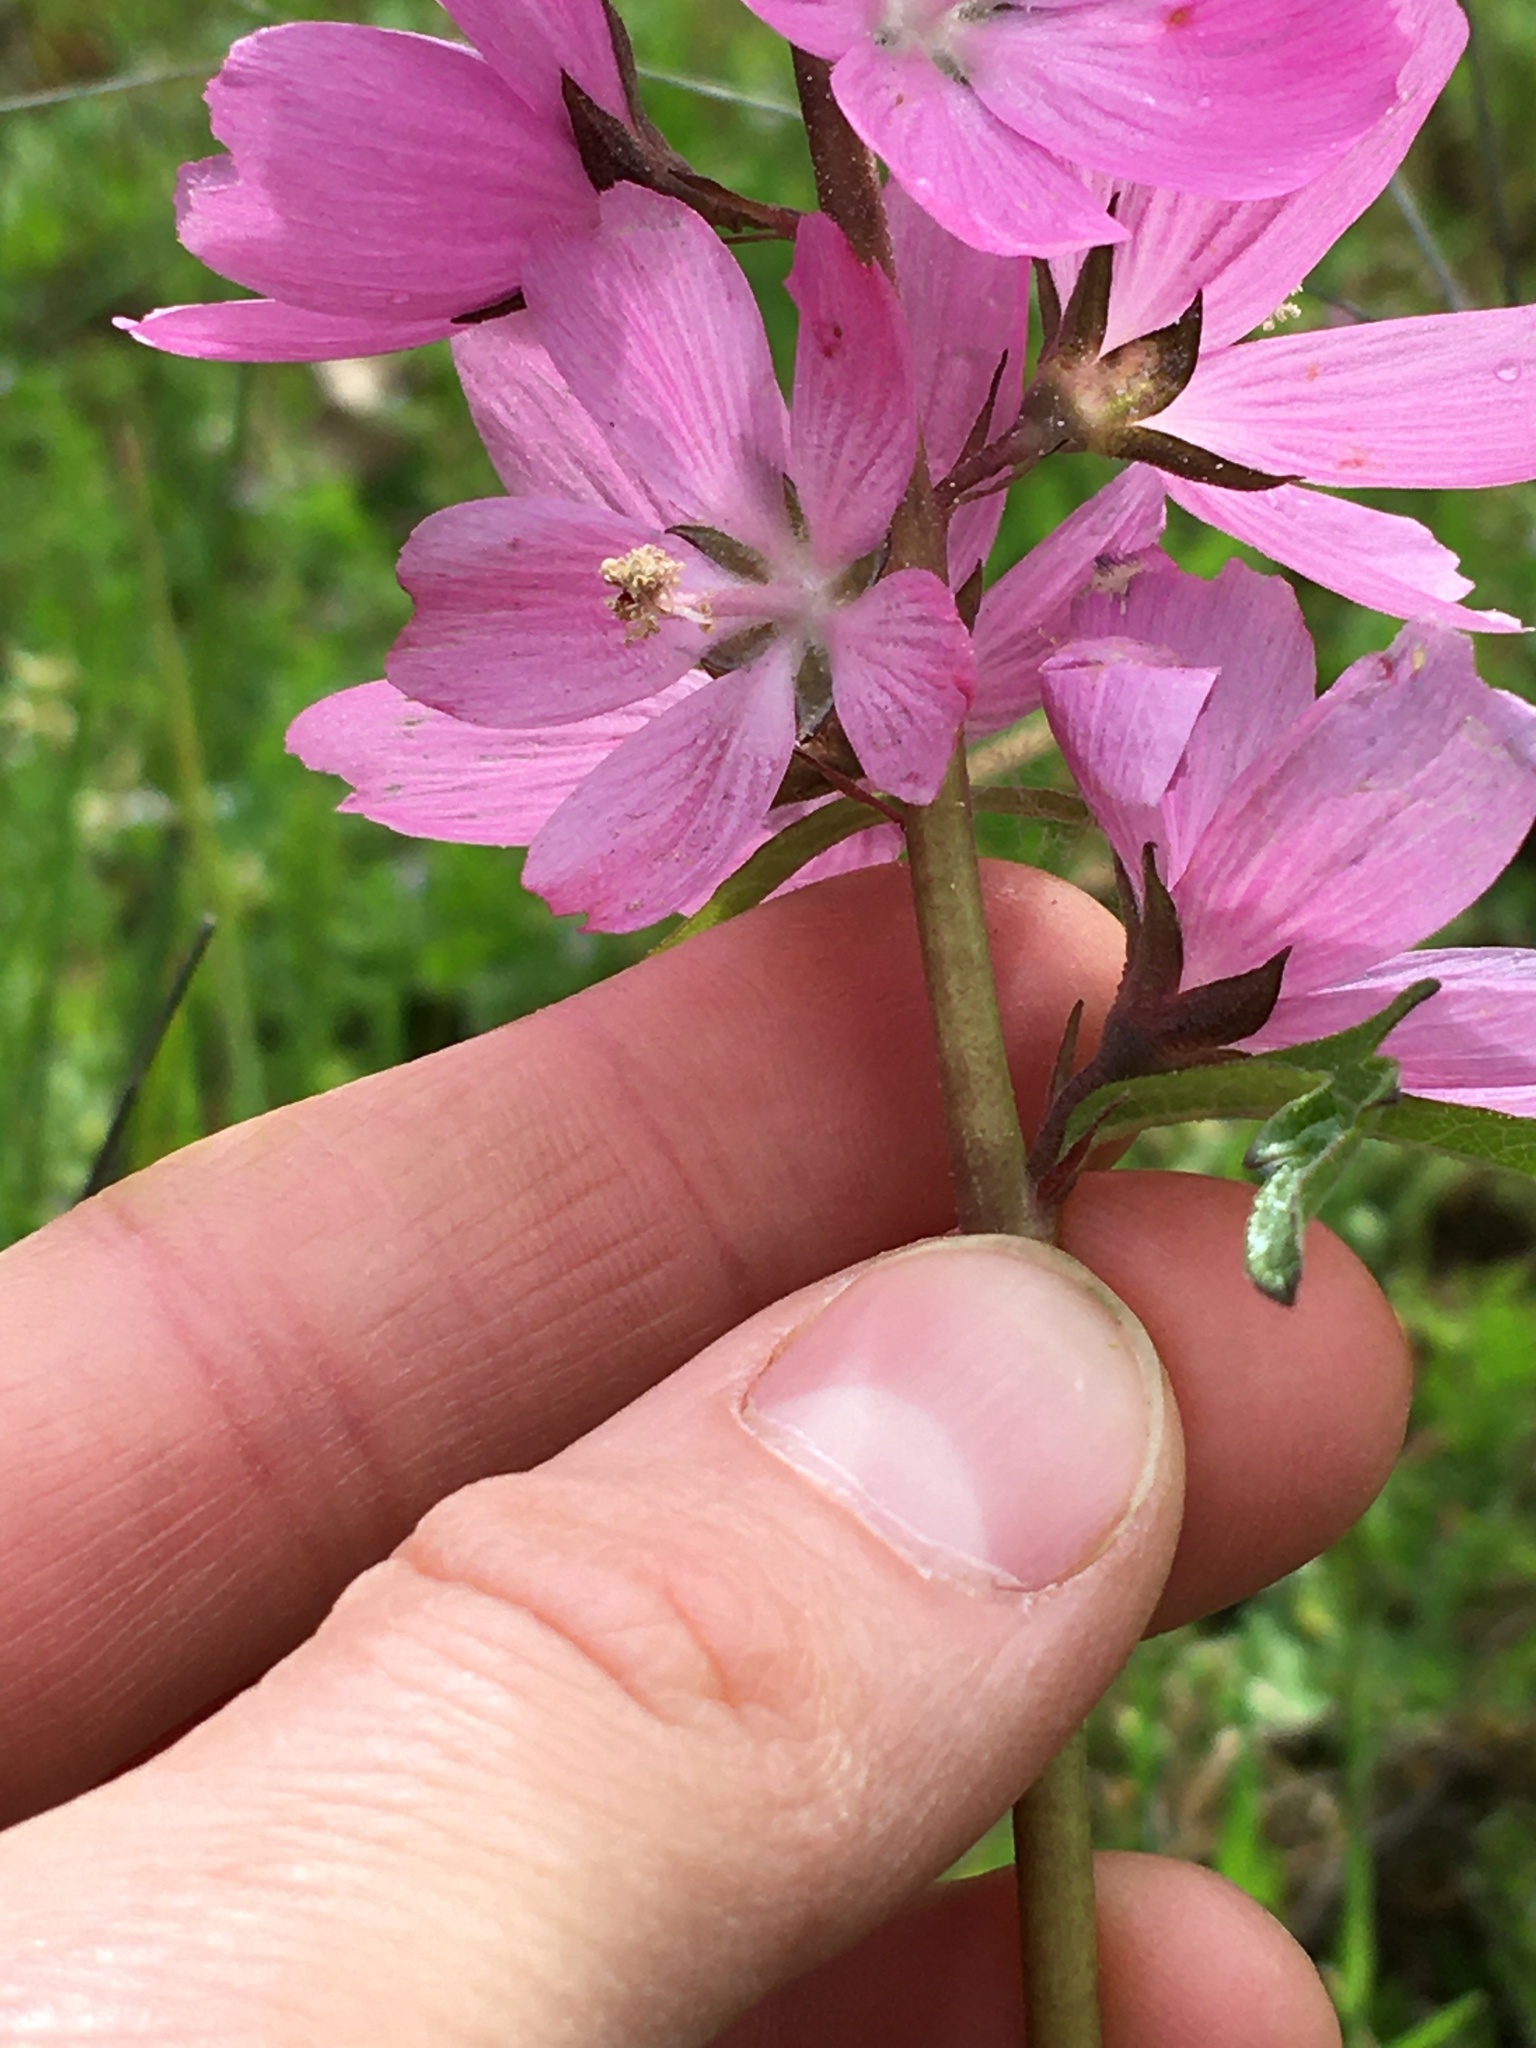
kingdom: Plantae
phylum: Tracheophyta
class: Magnoliopsida
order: Malvales
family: Malvaceae
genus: Sidalcea
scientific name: Sidalcea malviflora
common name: Greek mallow
